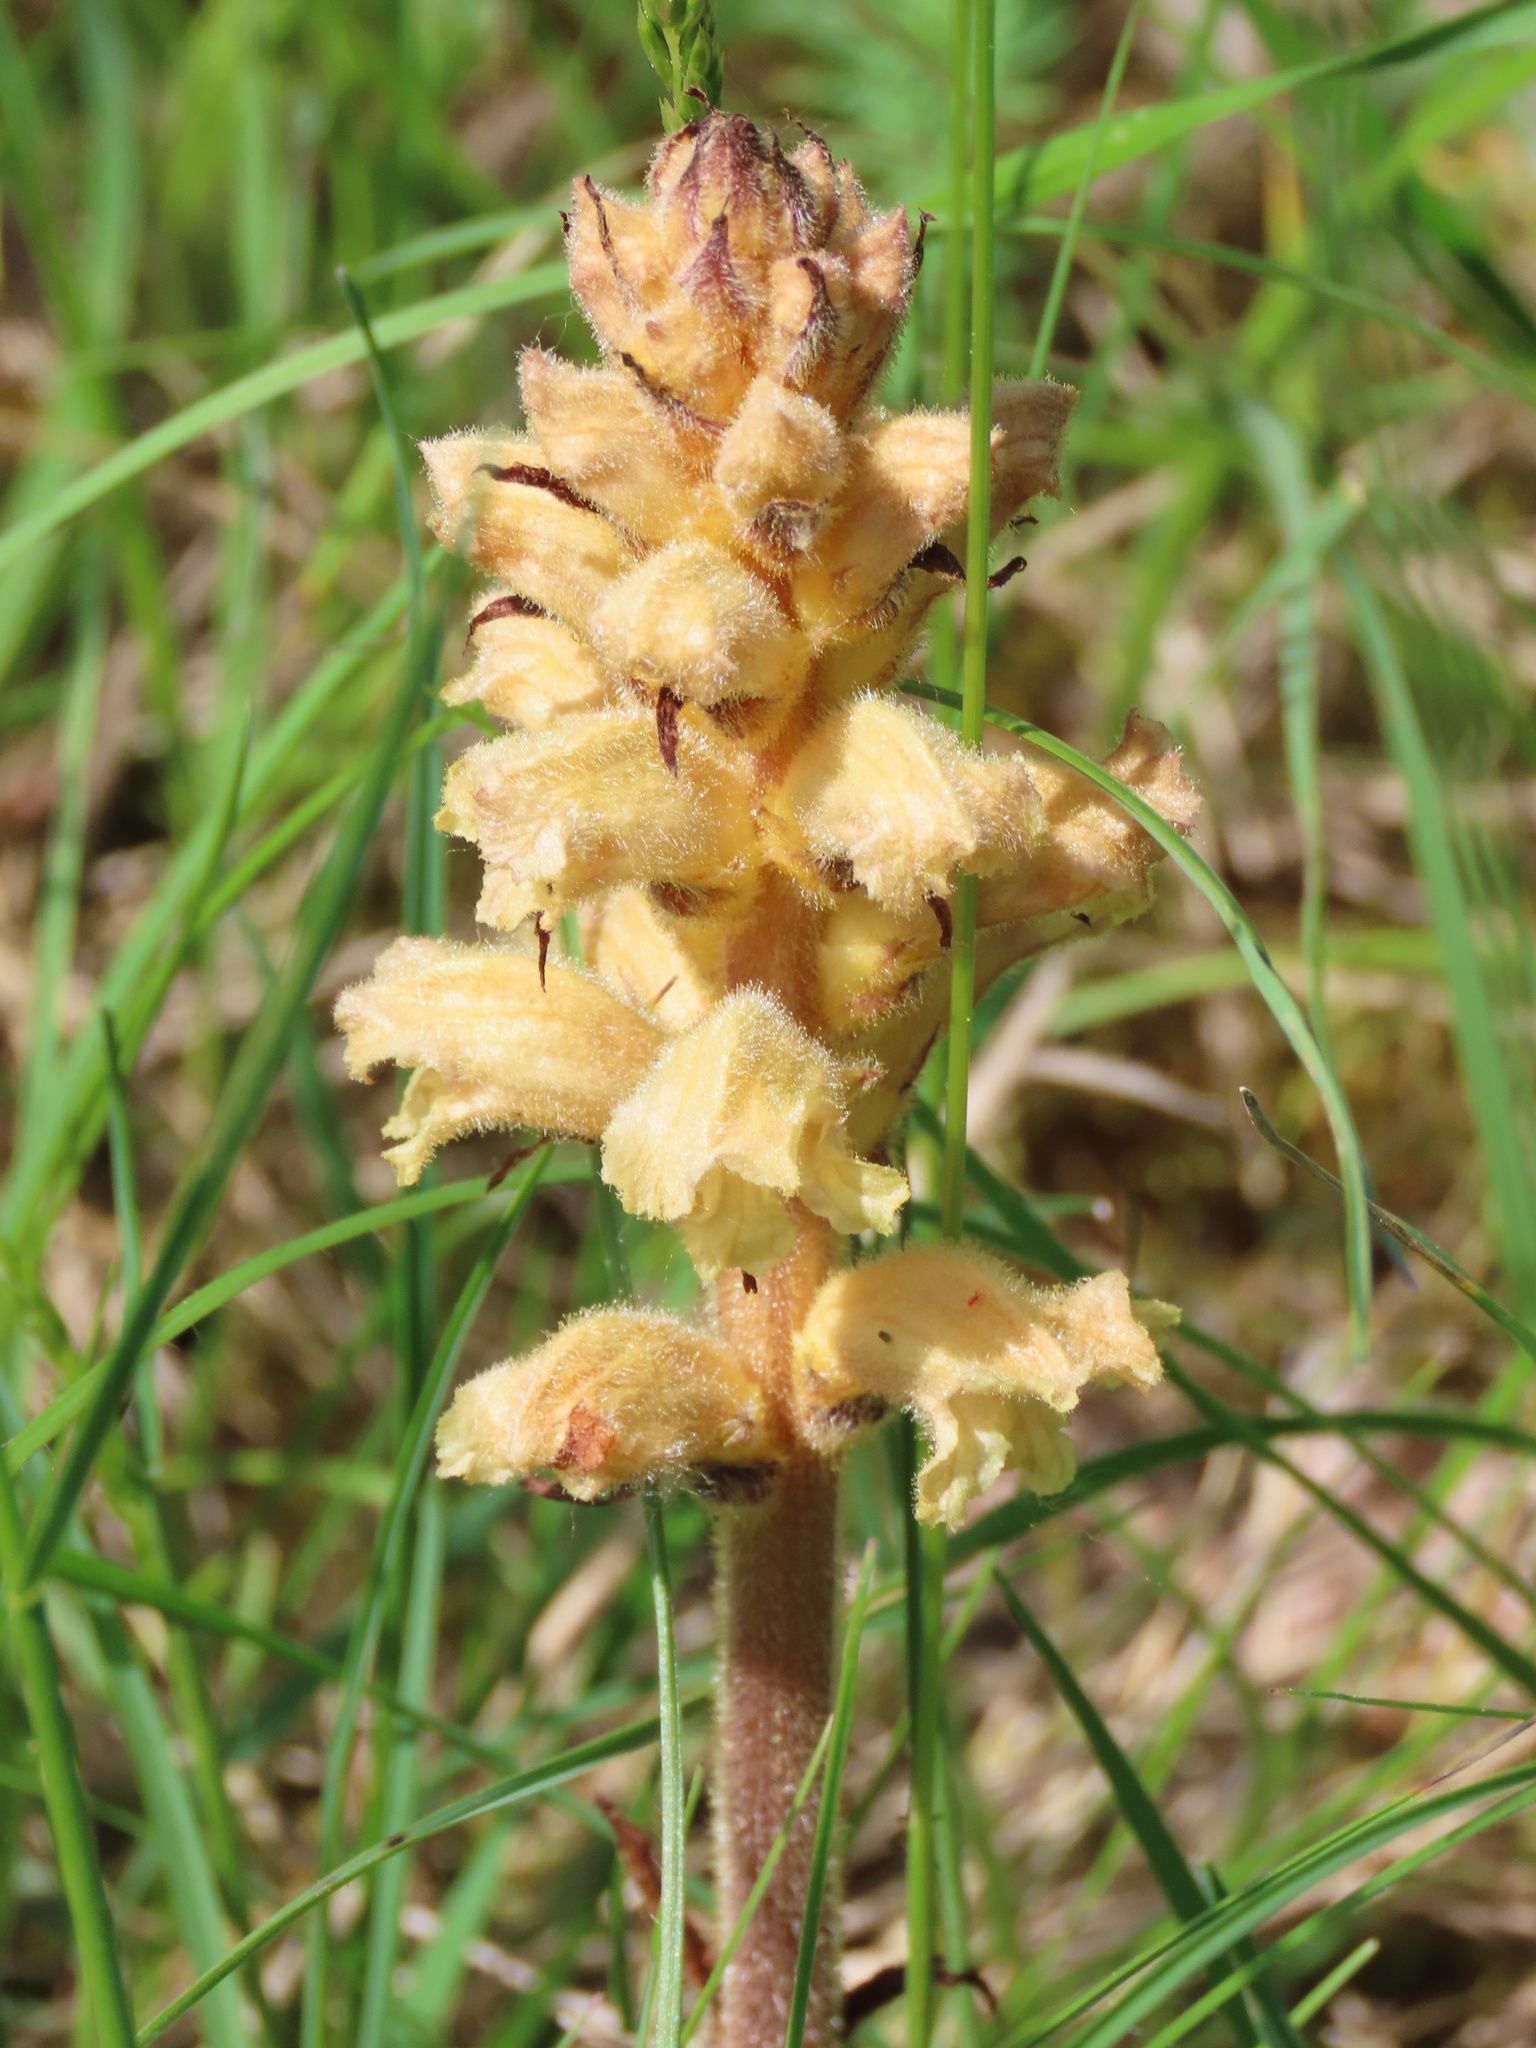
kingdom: Plantae
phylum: Tracheophyta
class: Magnoliopsida
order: Lamiales
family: Orobanchaceae
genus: Orobanche
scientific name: Orobanche lutea
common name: Yellow broomrape
